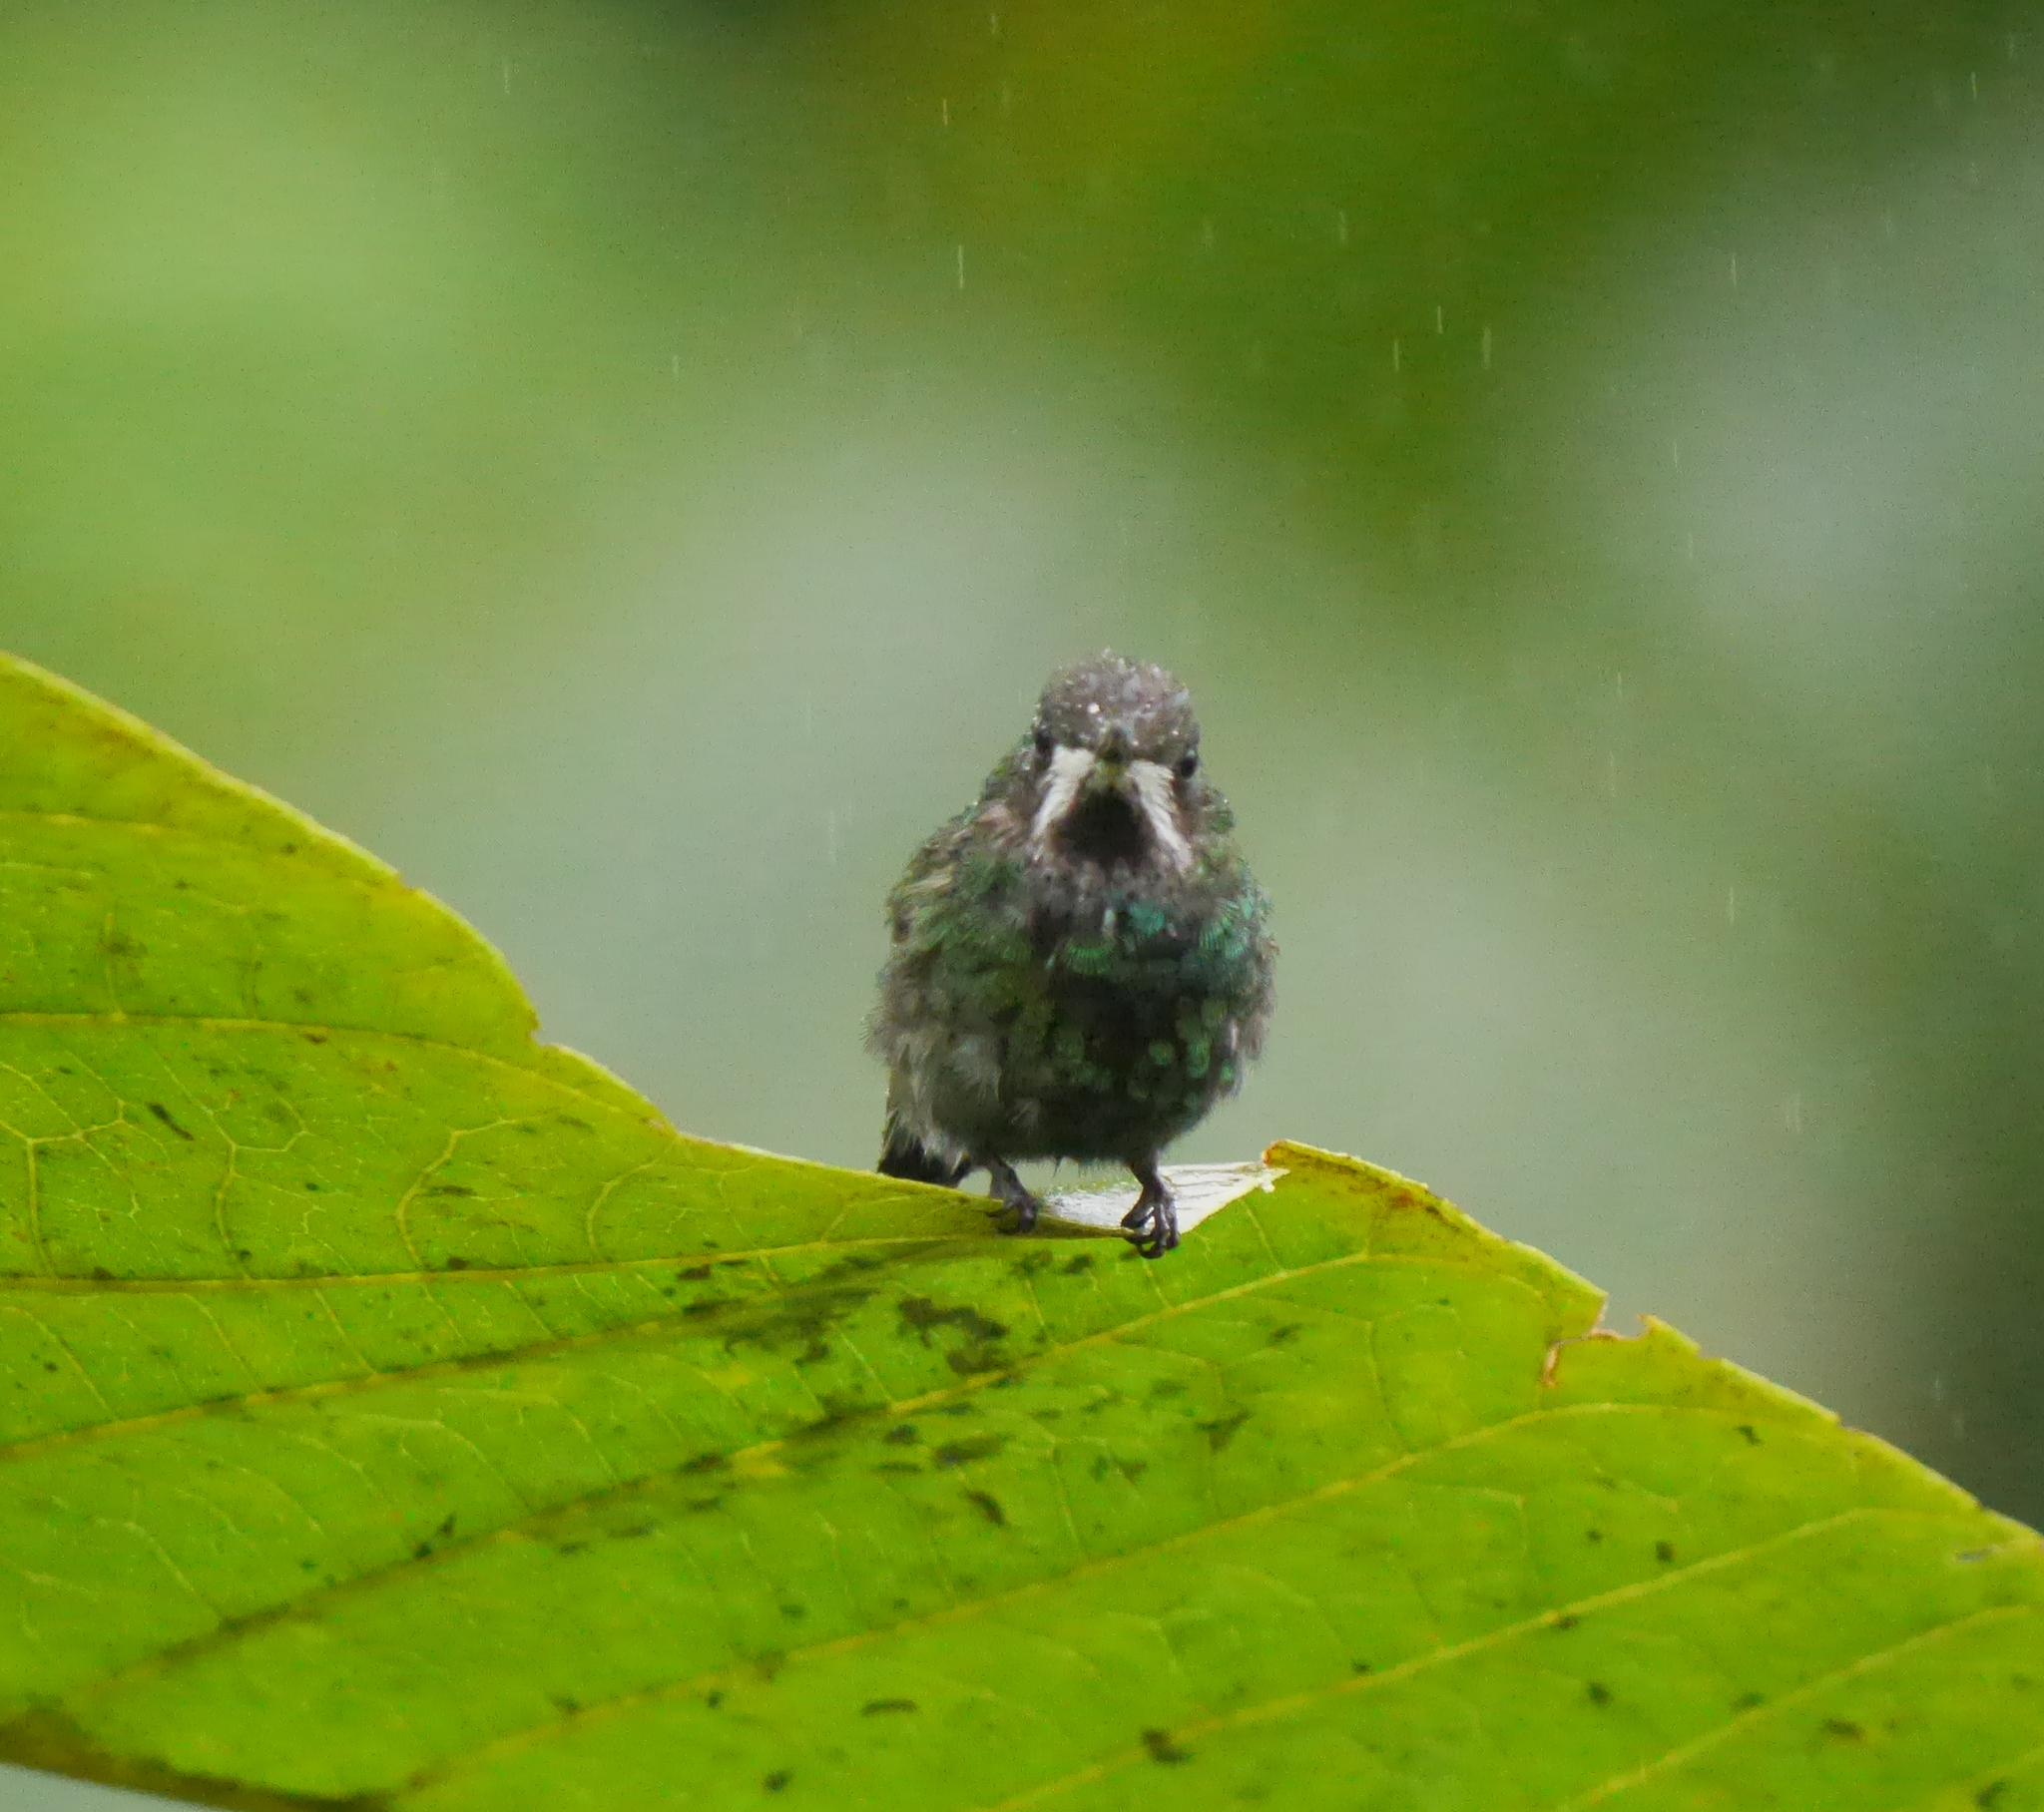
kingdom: Animalia
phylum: Chordata
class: Aves
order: Apodiformes
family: Trochilidae
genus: Discosura
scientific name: Discosura conversii
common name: Green thorntail
